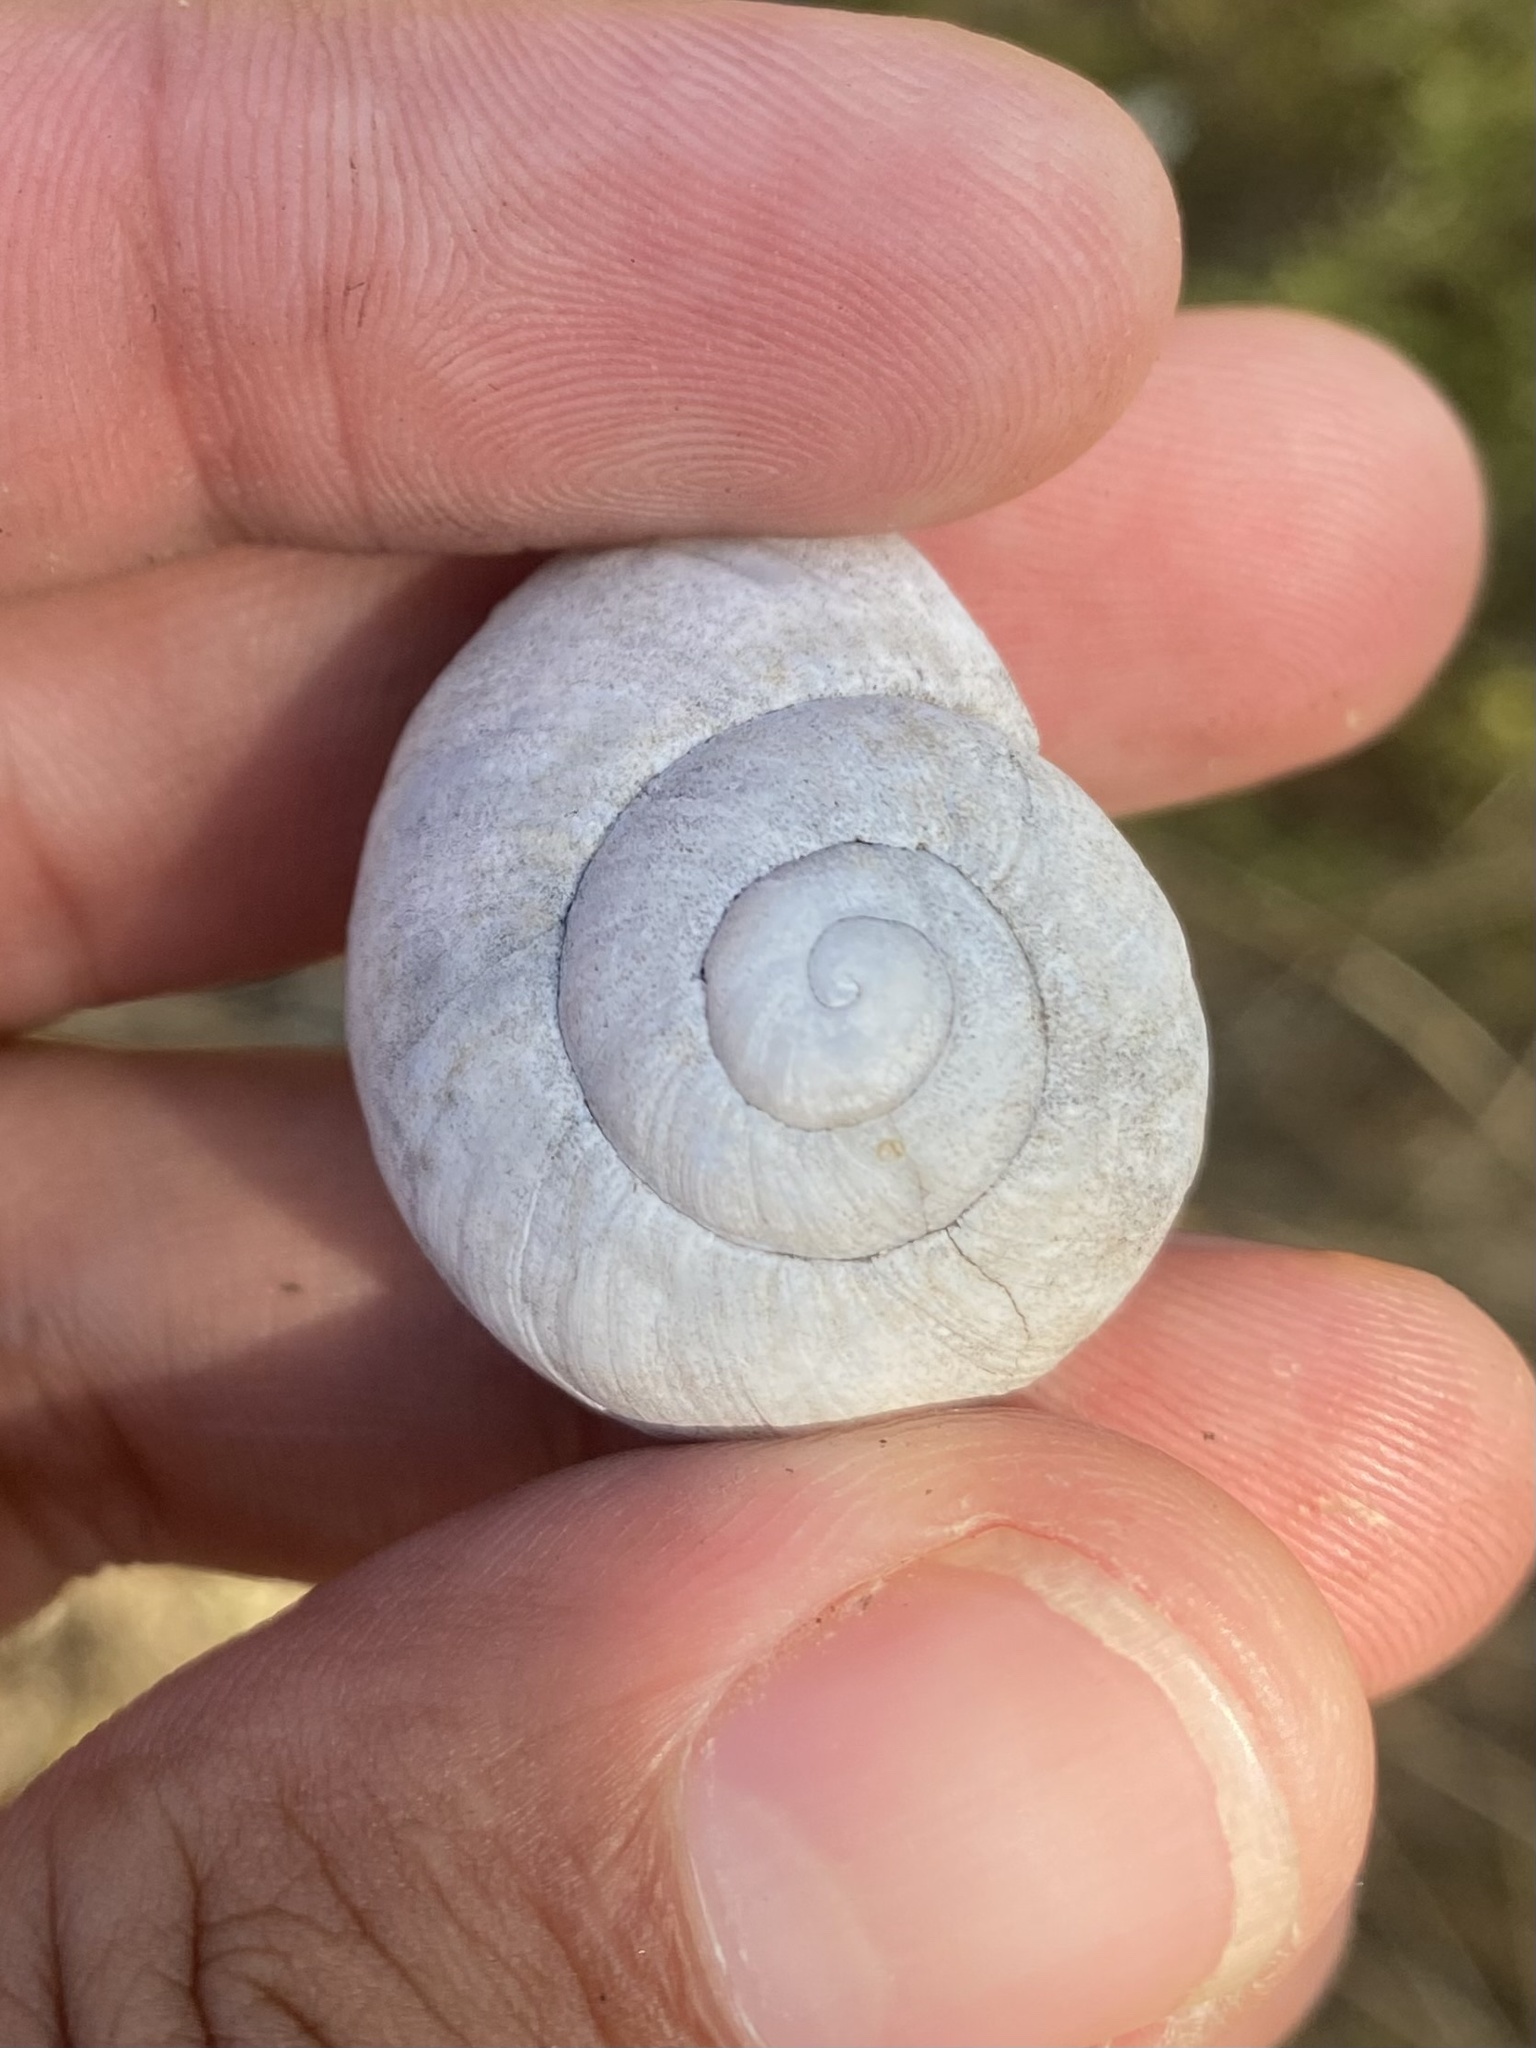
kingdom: Animalia
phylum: Mollusca
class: Gastropoda
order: Stylommatophora
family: Helicidae
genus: Helix
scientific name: Helix albescens
